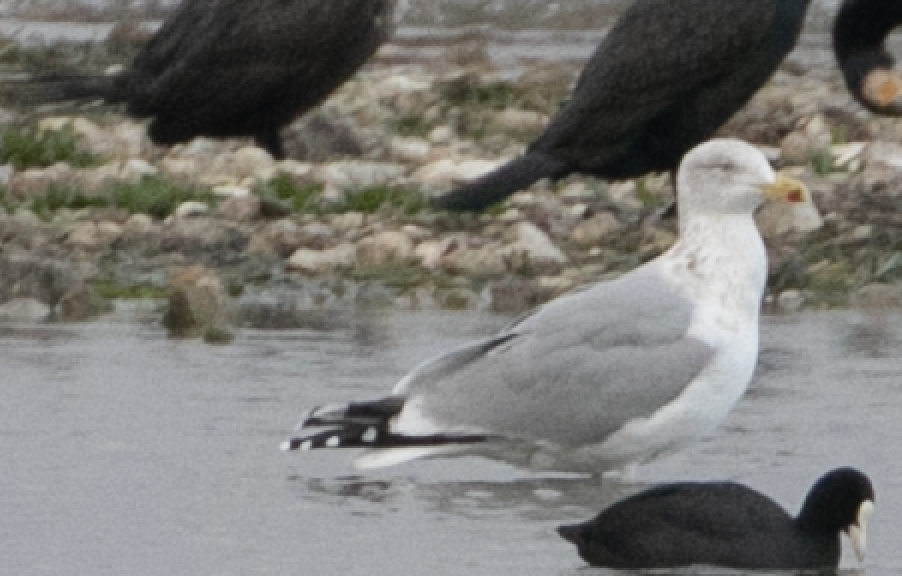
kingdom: Animalia
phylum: Chordata
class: Aves
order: Charadriiformes
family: Laridae
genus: Larus
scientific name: Larus argentatus
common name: Herring gull
